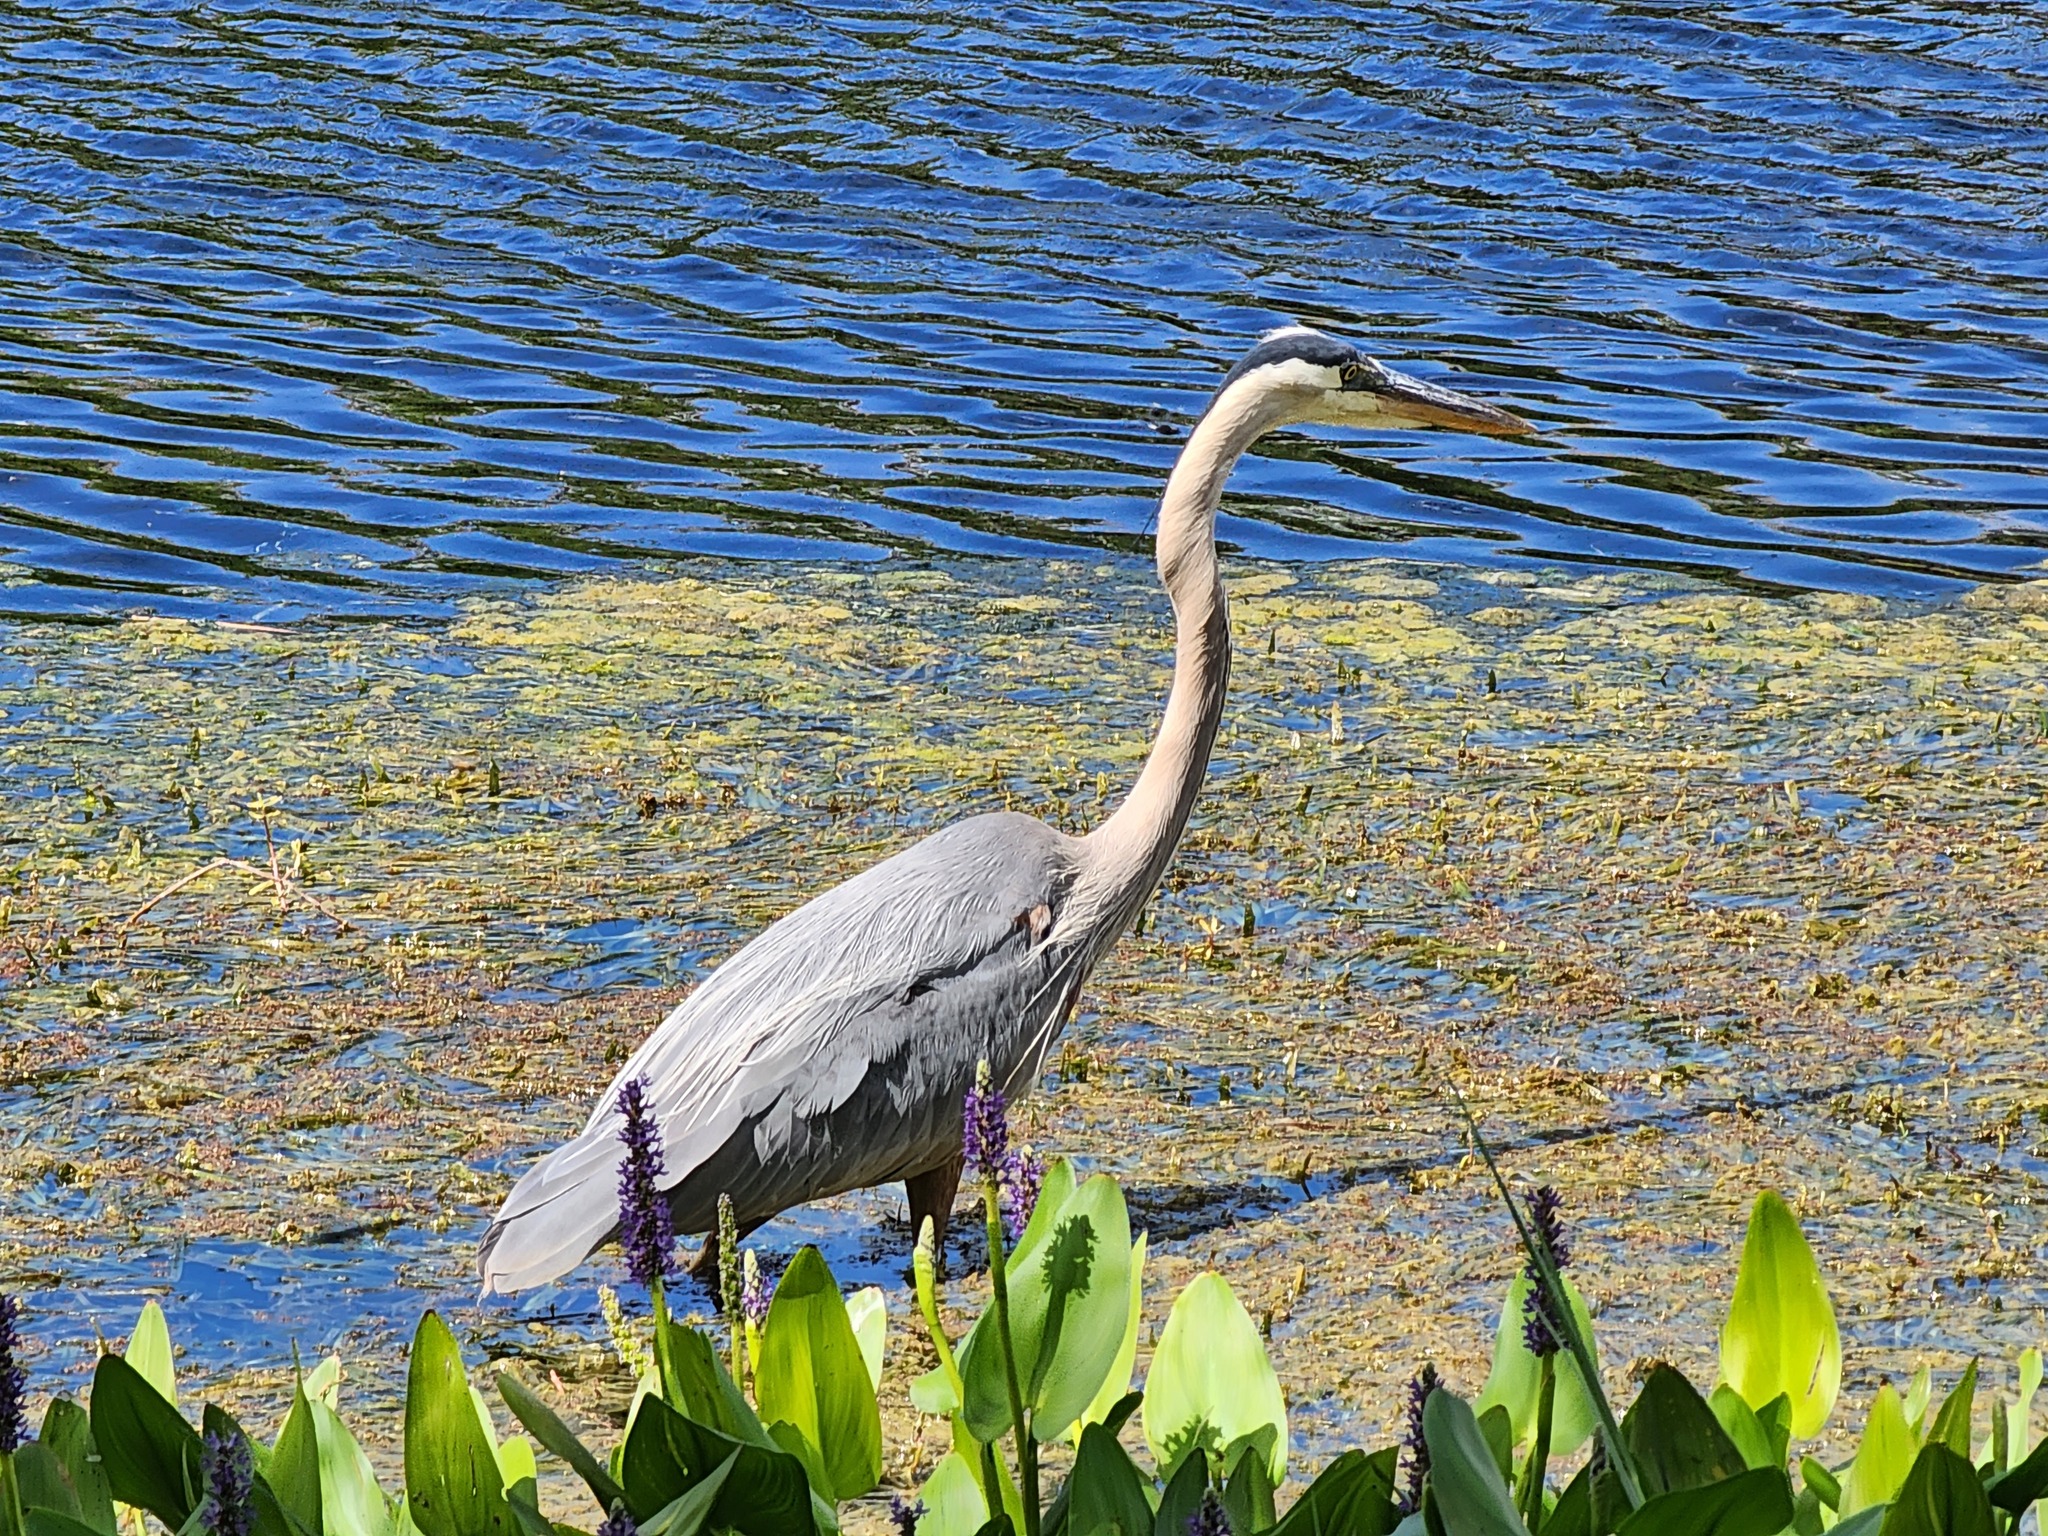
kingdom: Animalia
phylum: Chordata
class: Aves
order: Pelecaniformes
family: Ardeidae
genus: Ardea
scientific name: Ardea herodias
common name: Great blue heron
